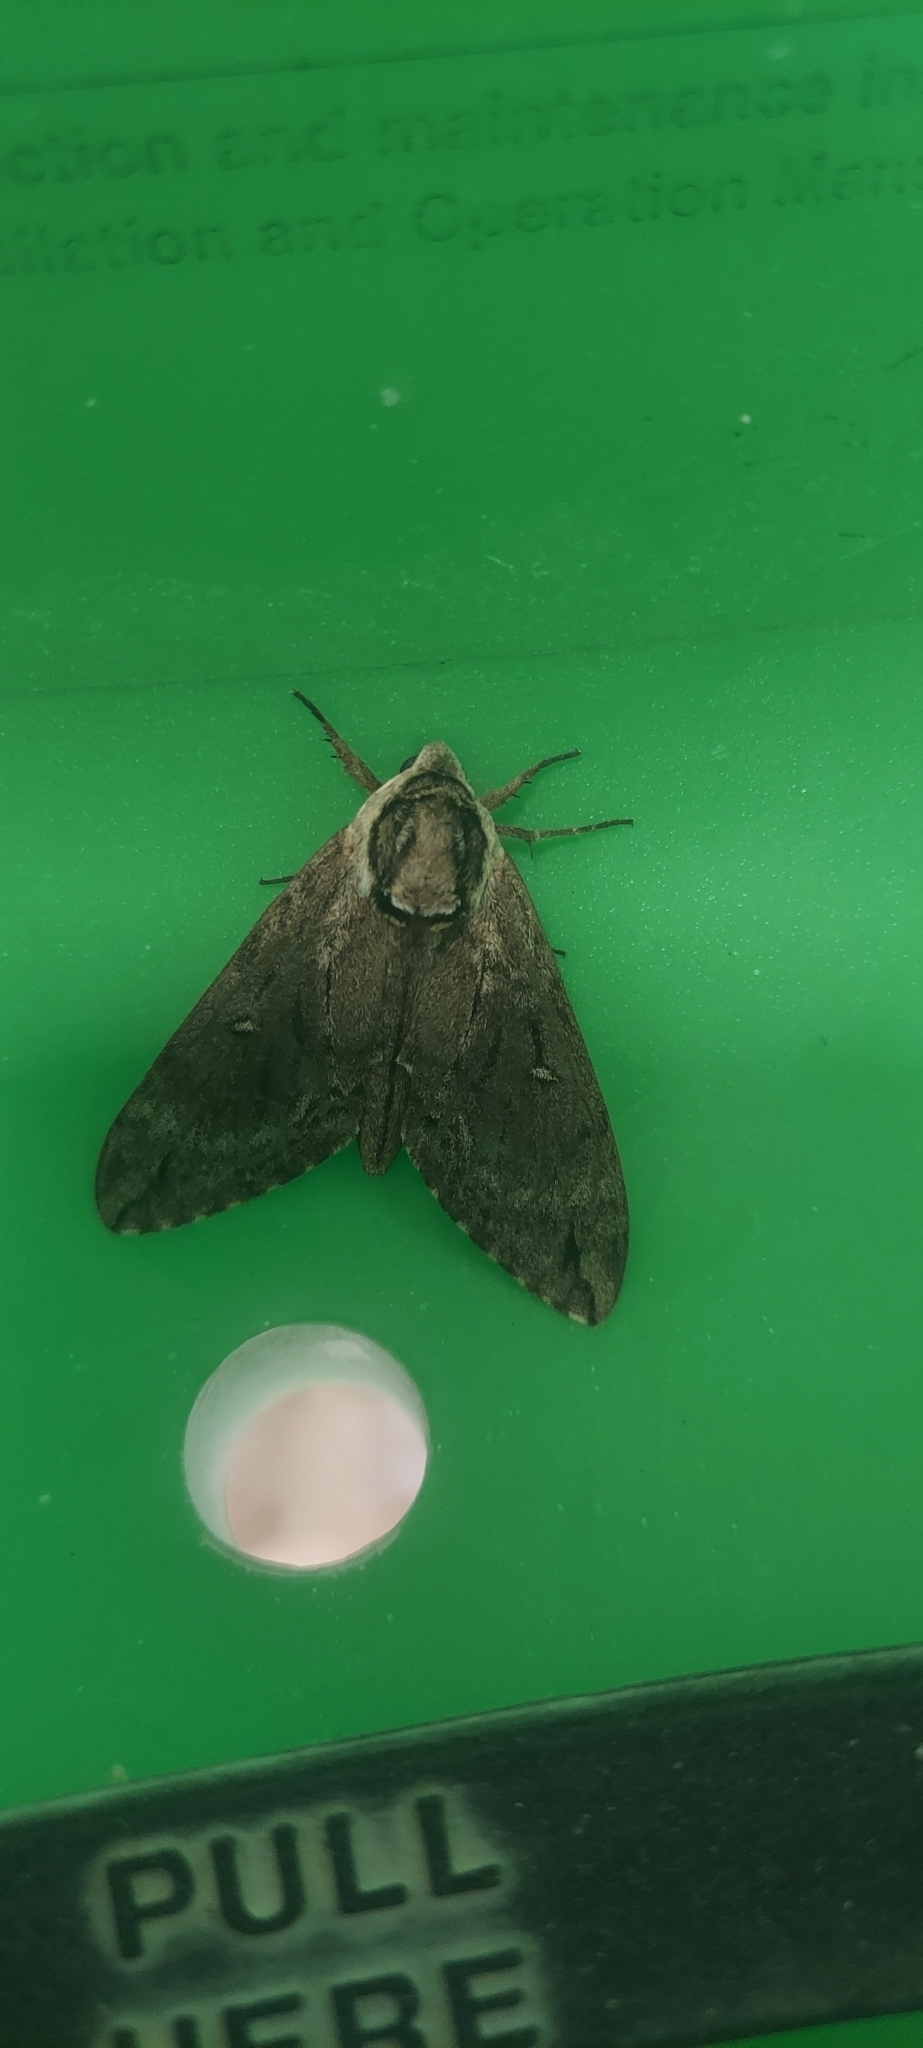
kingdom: Animalia
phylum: Arthropoda
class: Insecta
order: Lepidoptera
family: Sphingidae
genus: Ceratomia
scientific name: Ceratomia catalpae
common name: Catalpa hornworm
